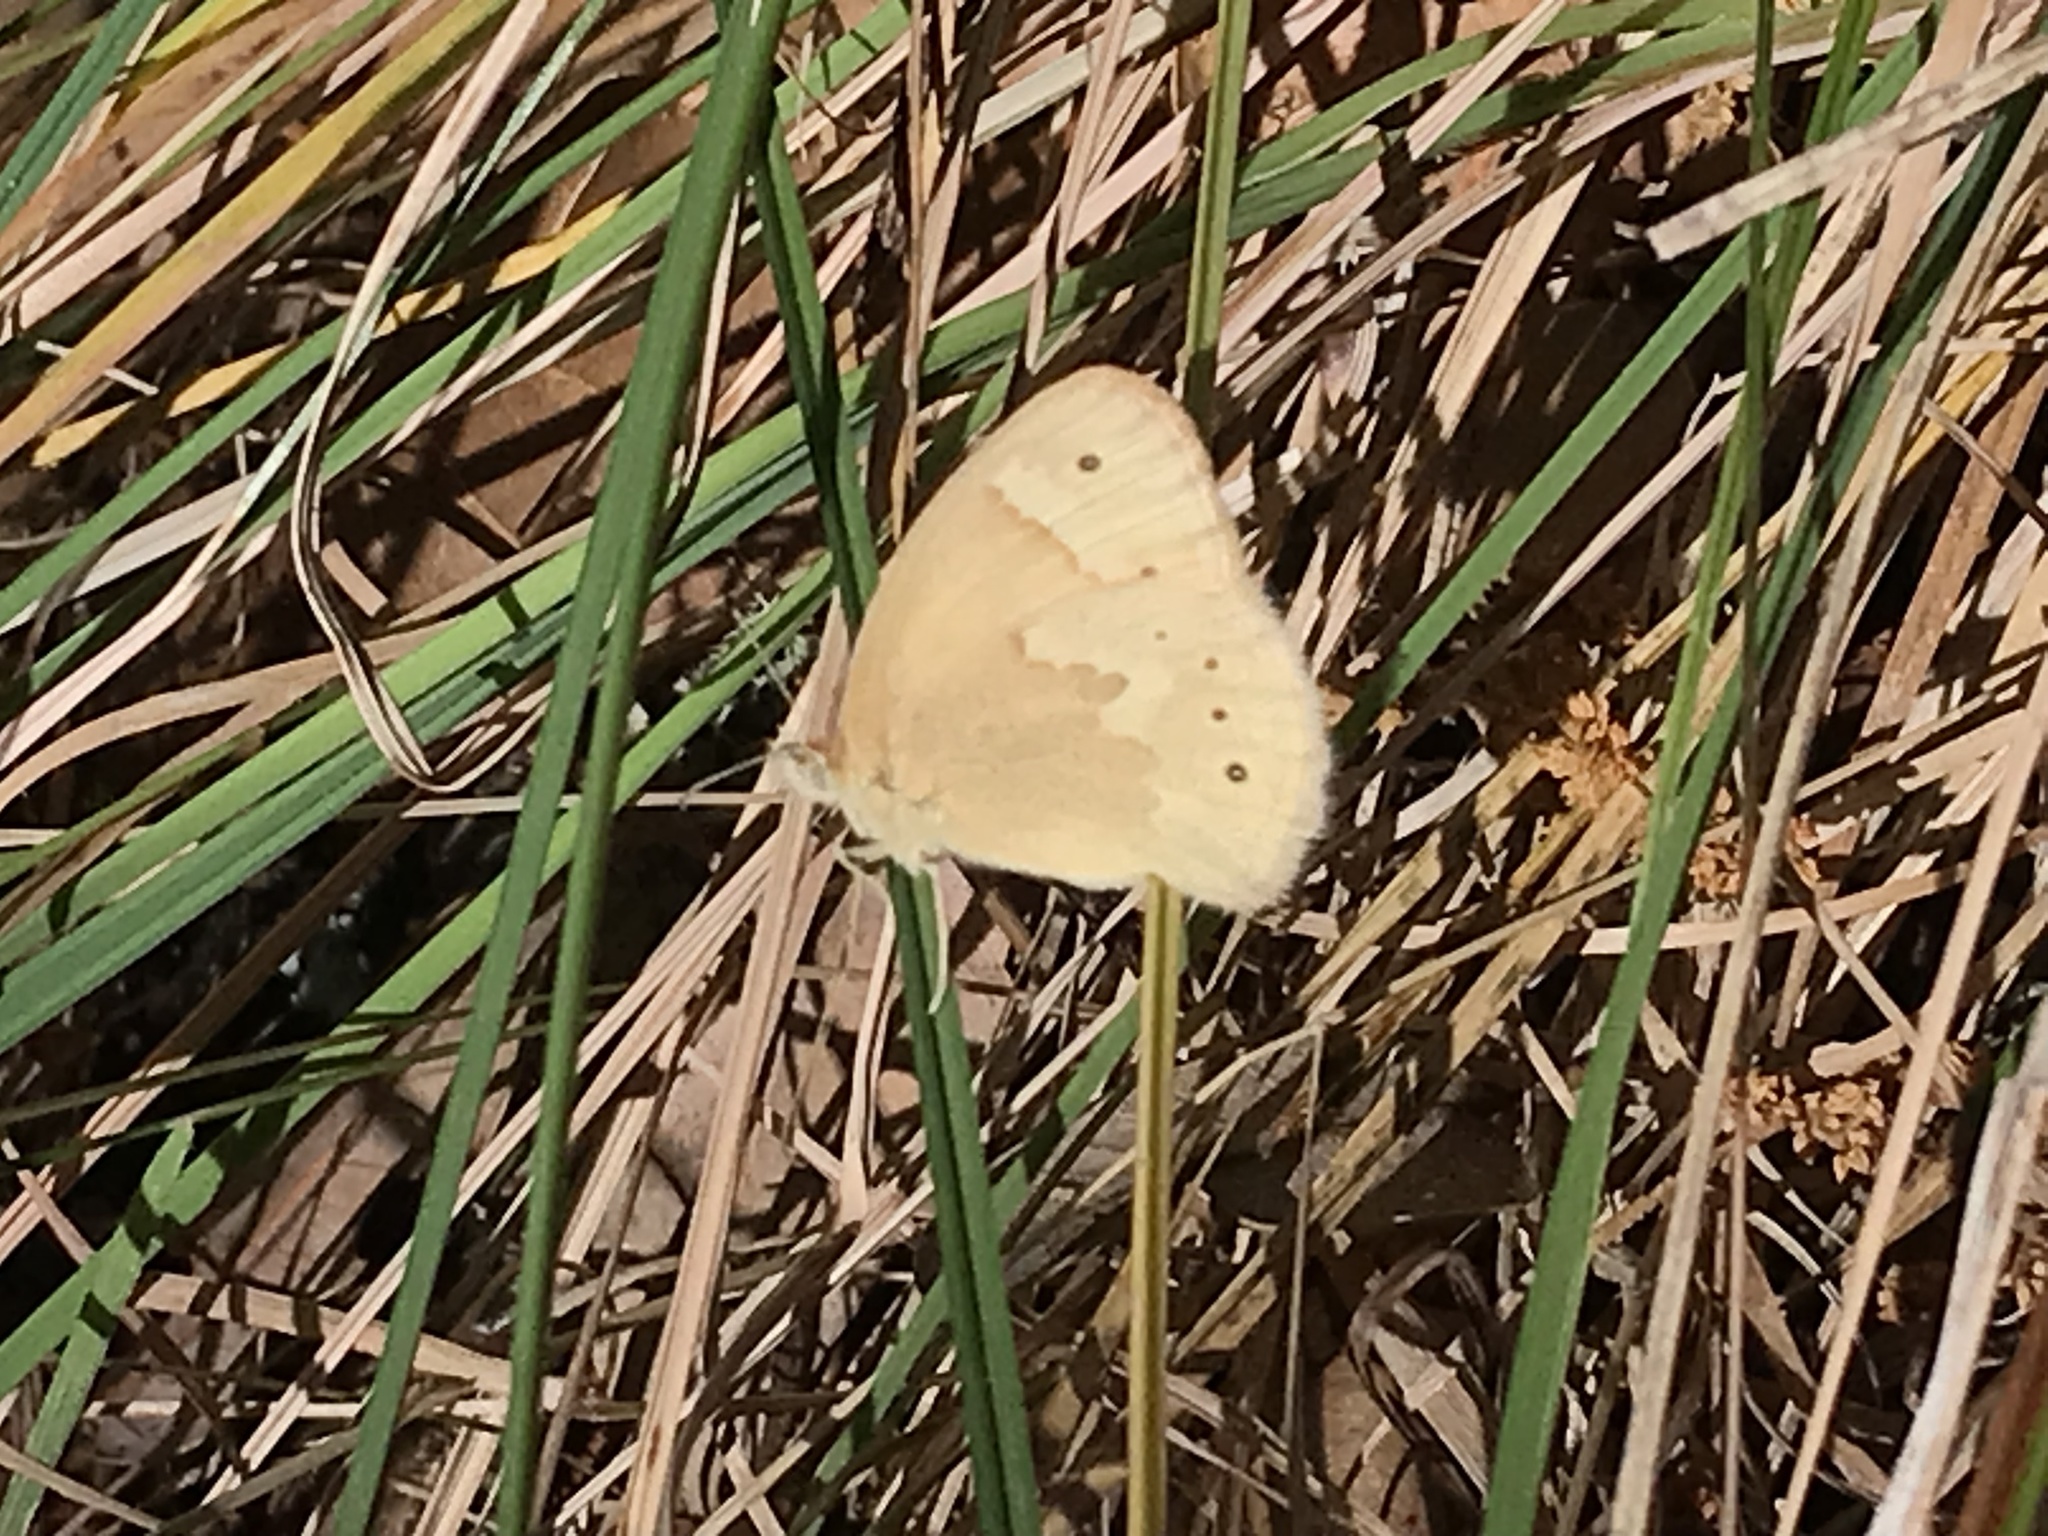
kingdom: Animalia
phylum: Arthropoda
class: Insecta
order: Lepidoptera
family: Nymphalidae
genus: Coenonympha
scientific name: Coenonympha california
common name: Common ringlet
